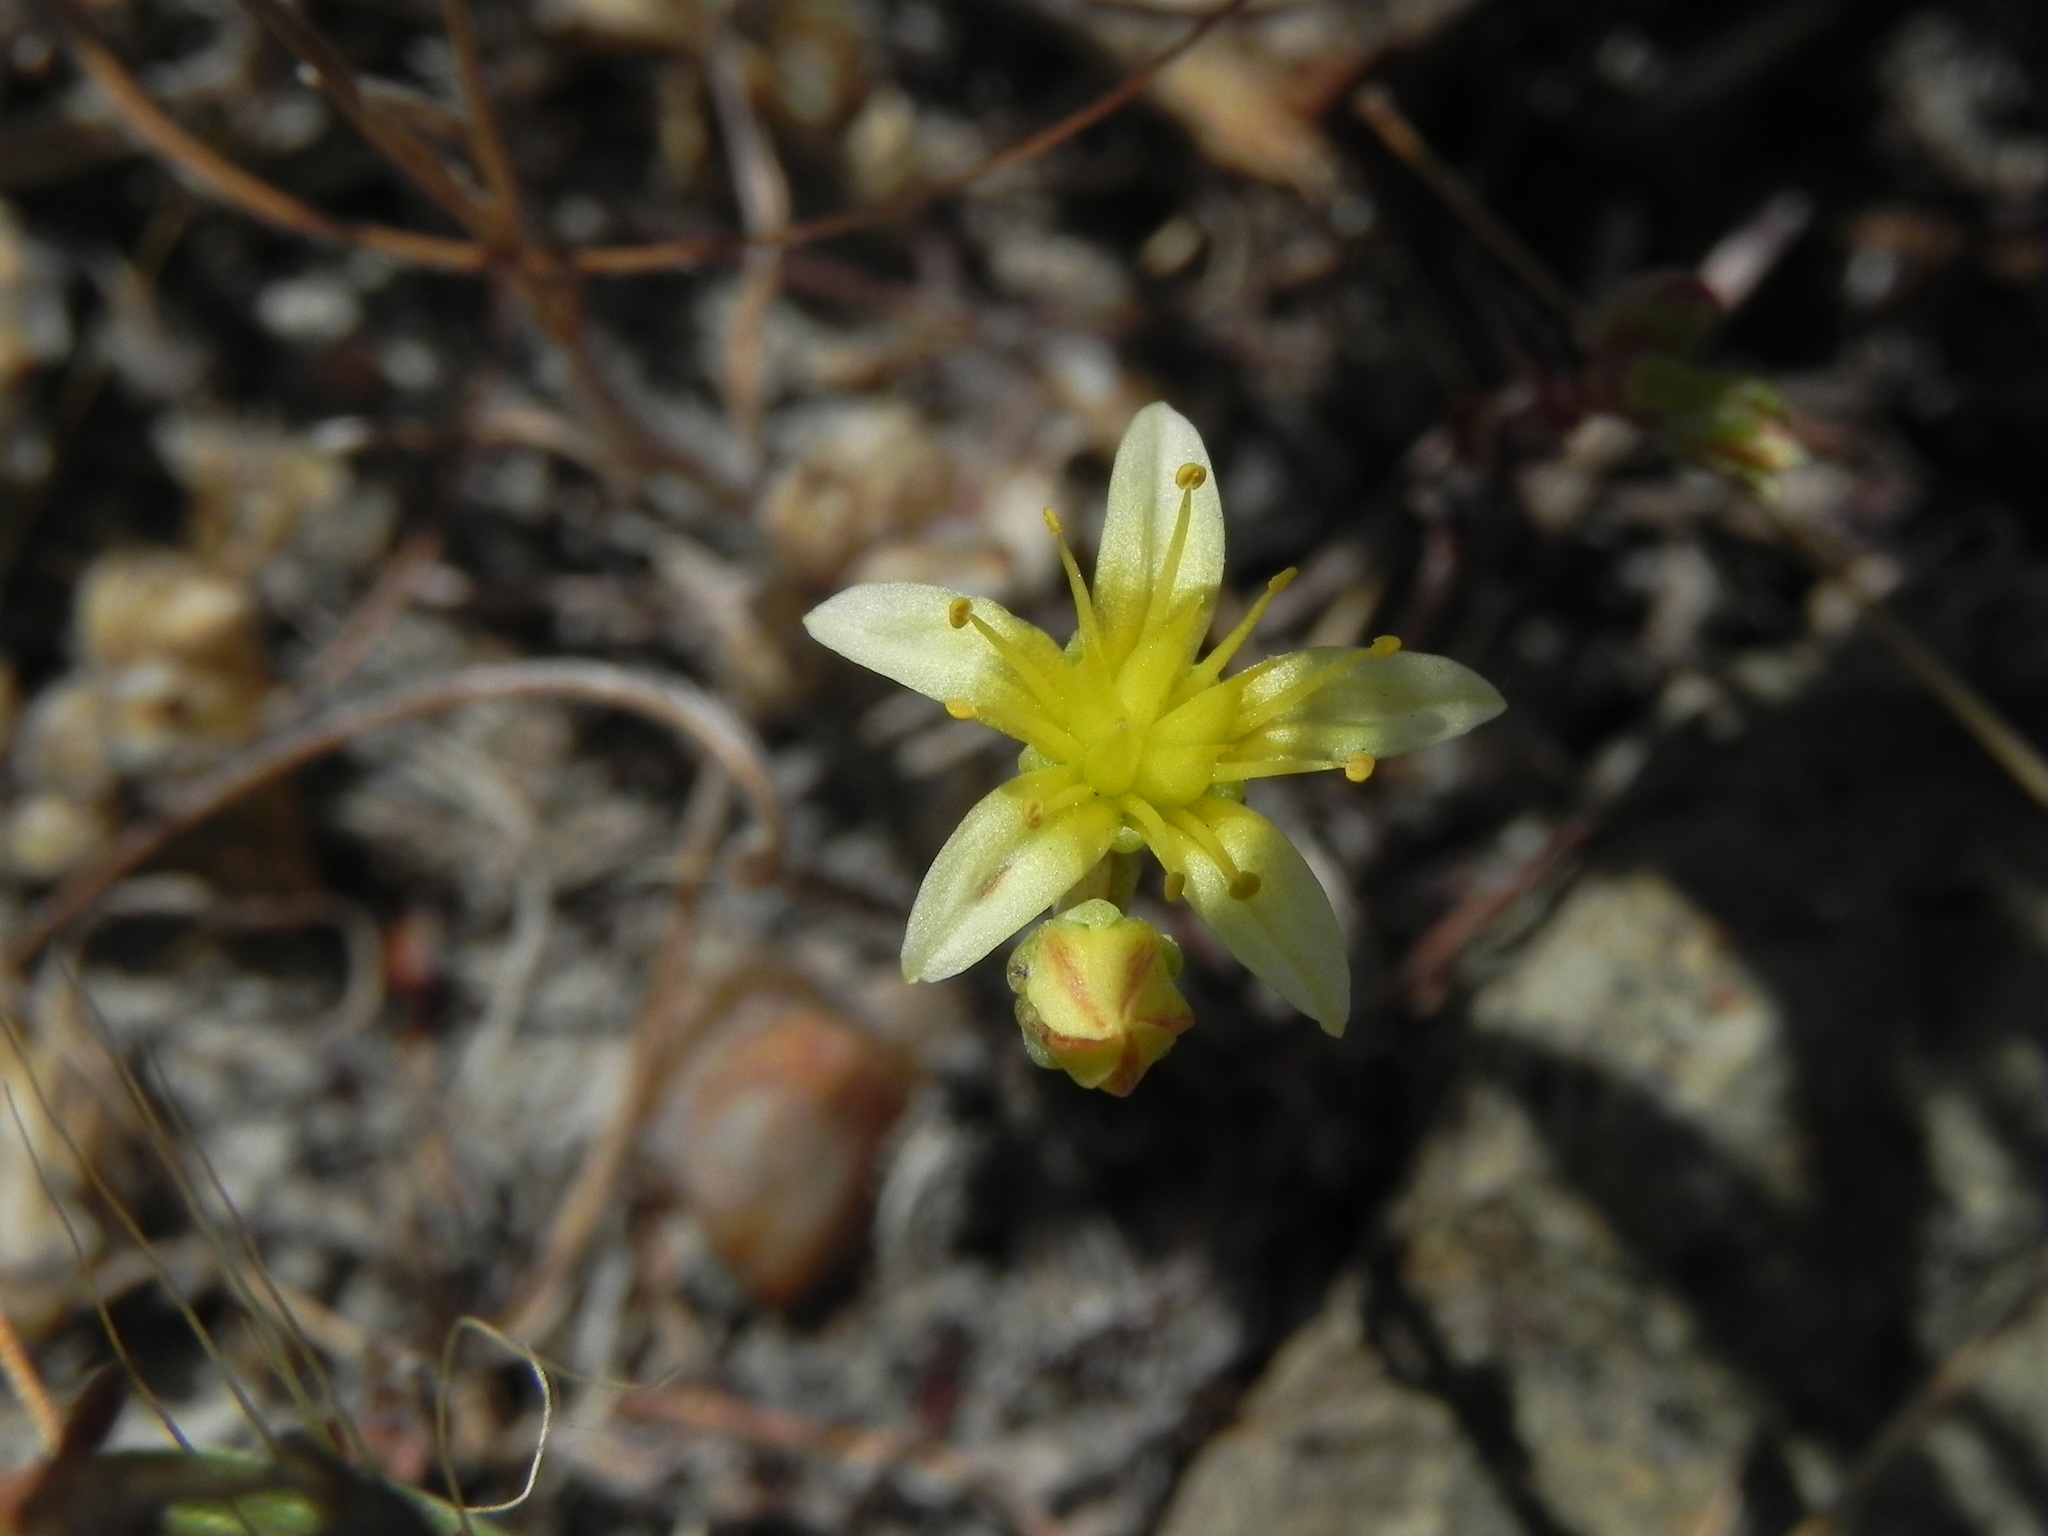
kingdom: Plantae
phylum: Tracheophyta
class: Magnoliopsida
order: Saxifragales
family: Crassulaceae
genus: Dudleya
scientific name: Dudleya variegata
